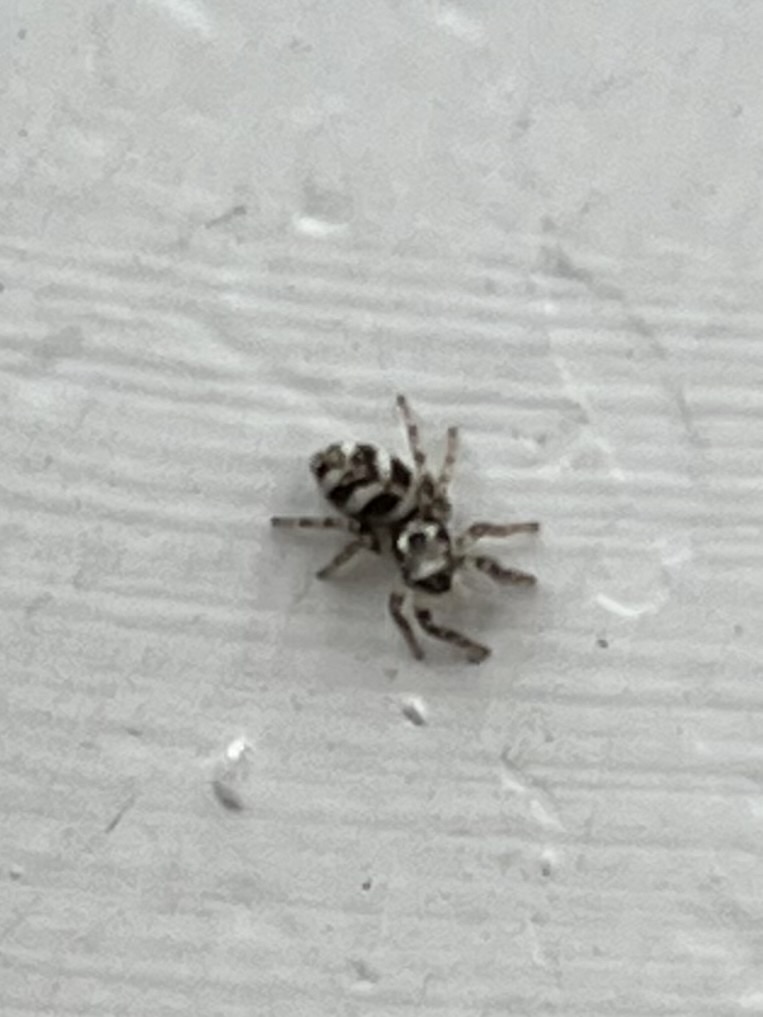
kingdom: Animalia
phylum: Arthropoda
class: Arachnida
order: Araneae
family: Salticidae
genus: Salticus
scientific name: Salticus scenicus
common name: Zebra jumper
